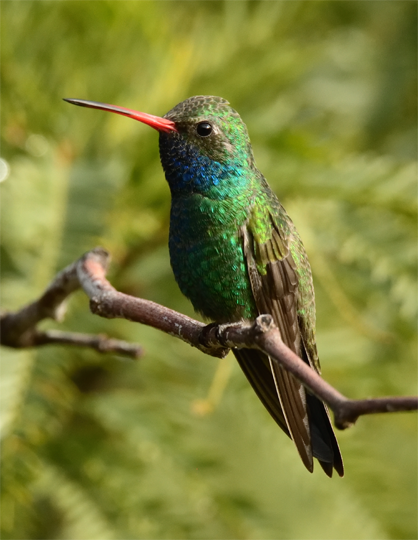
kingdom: Animalia
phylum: Chordata
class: Aves
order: Apodiformes
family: Trochilidae
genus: Cynanthus
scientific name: Cynanthus latirostris
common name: Broad-billed hummingbird
